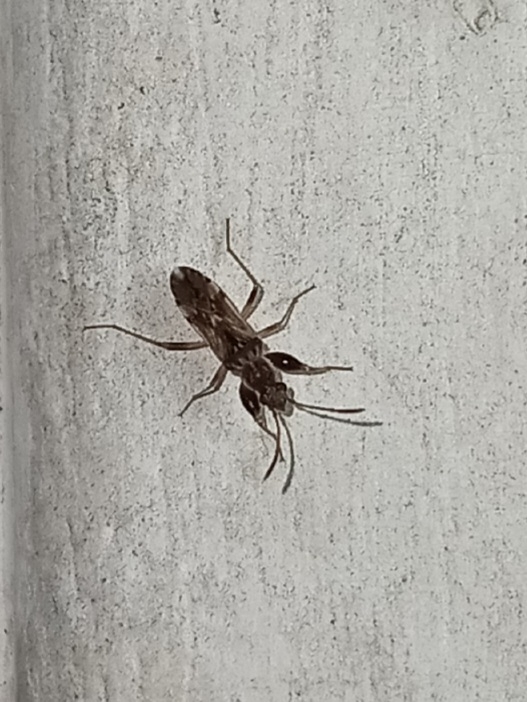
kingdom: Animalia
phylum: Arthropoda
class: Insecta
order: Hemiptera
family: Rhyparochromidae
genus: Neopamera
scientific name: Neopamera bilobata
